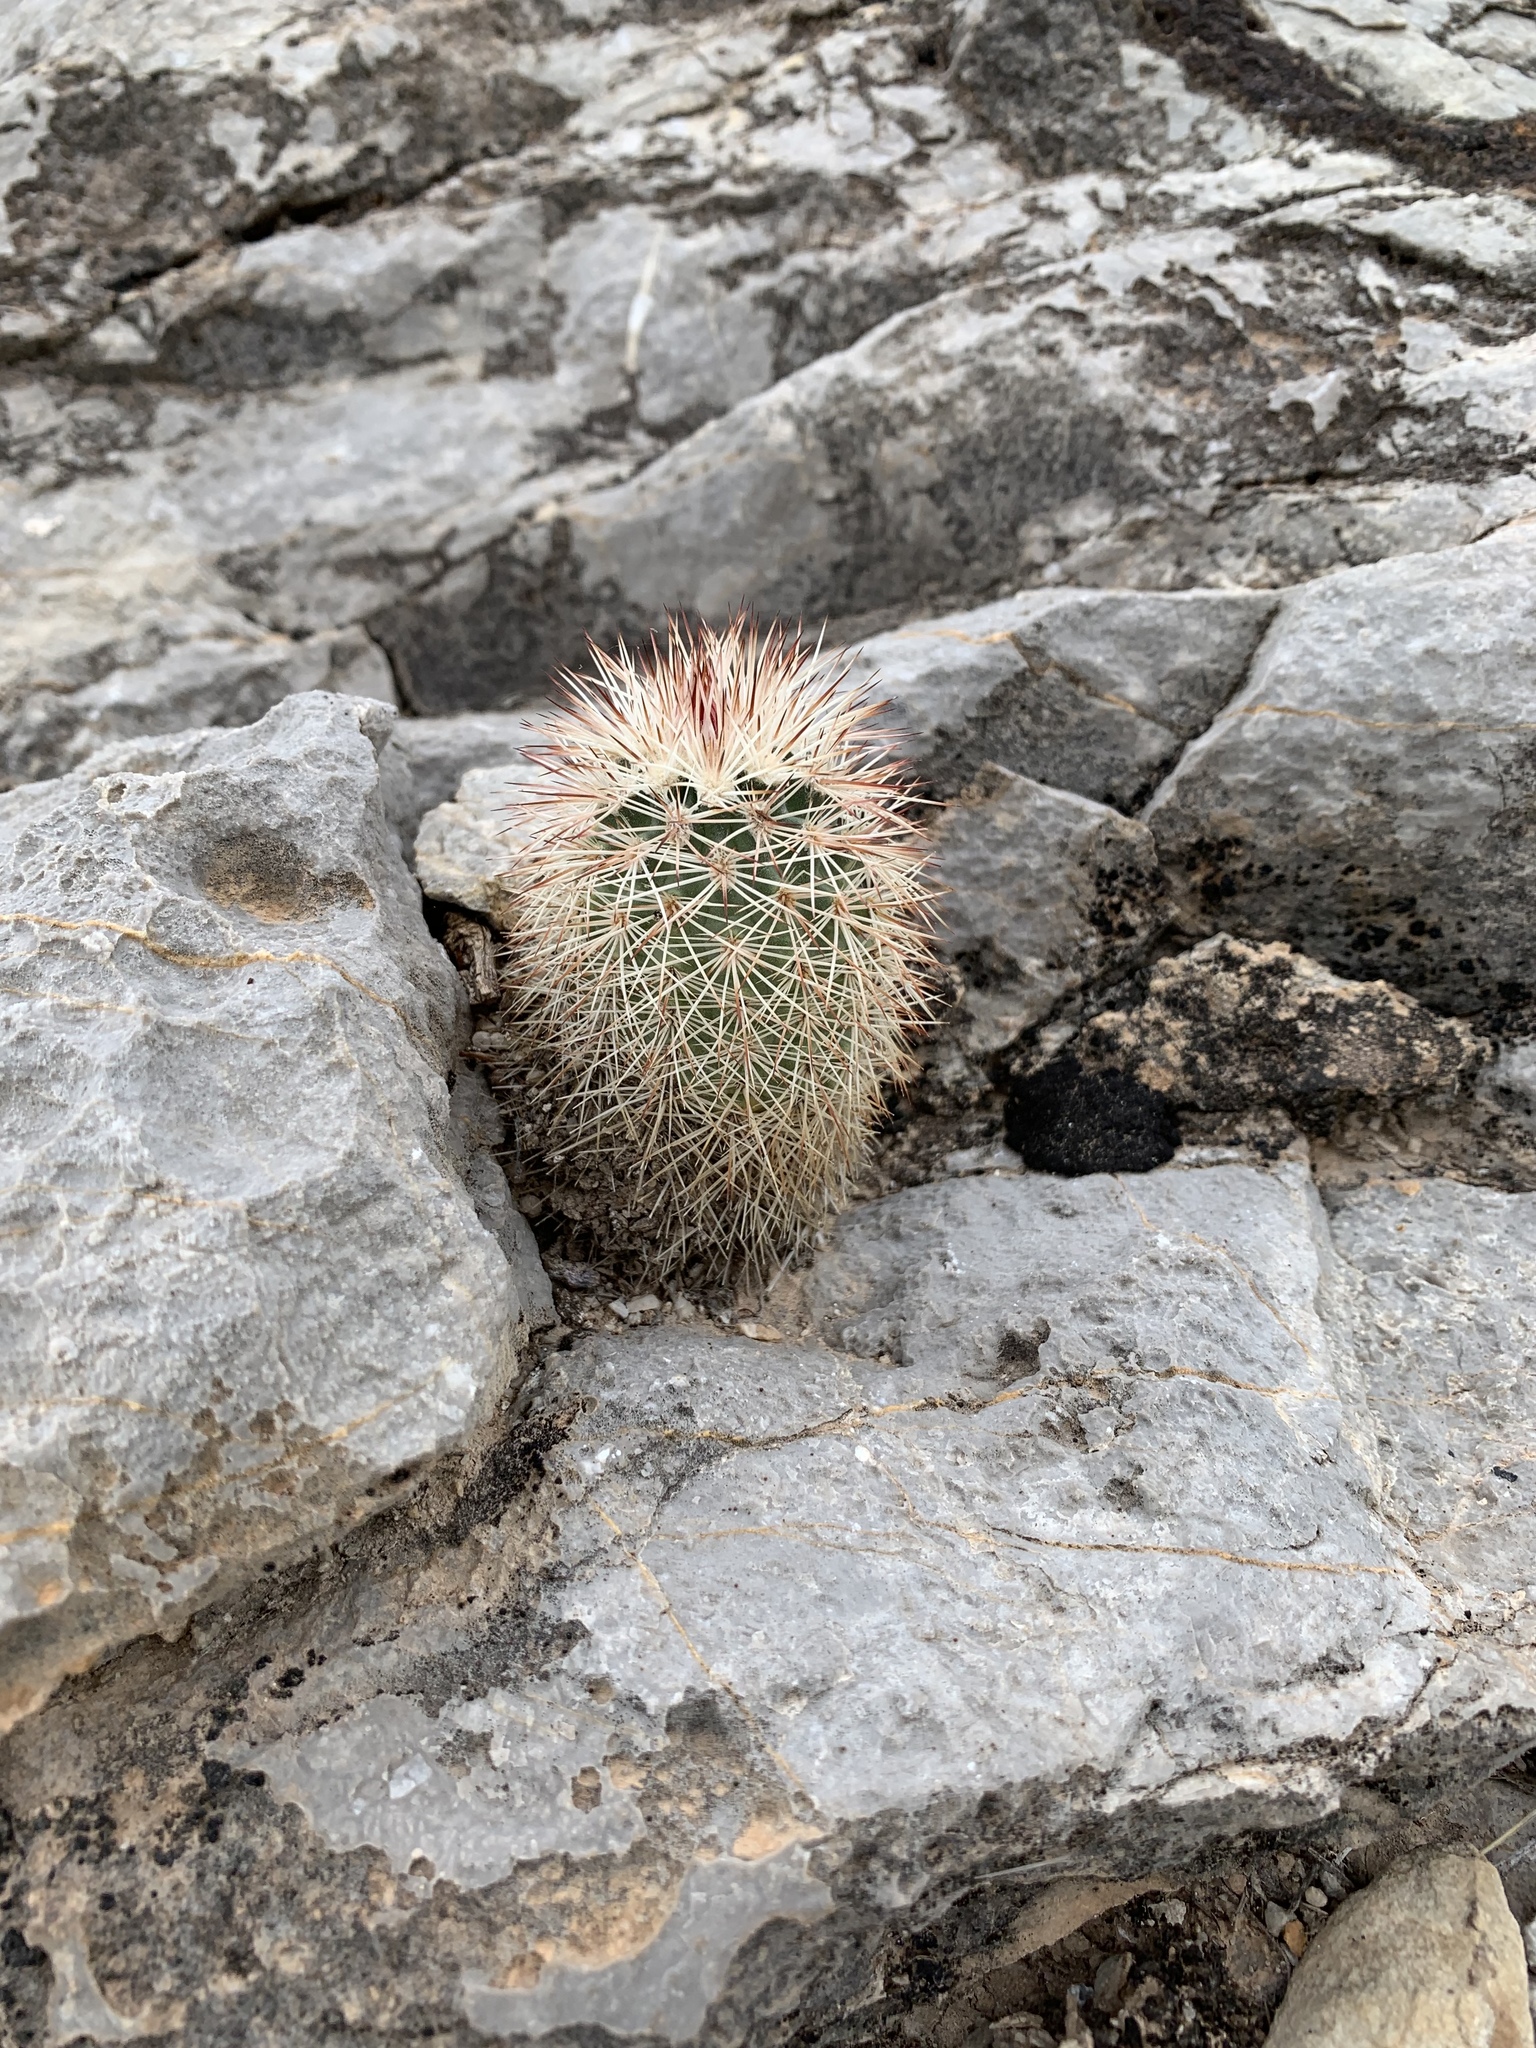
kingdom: Plantae
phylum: Tracheophyta
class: Magnoliopsida
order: Caryophyllales
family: Cactaceae
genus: Echinocereus
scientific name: Echinocereus dasyacanthus
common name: Spiny hedgehog cactus
